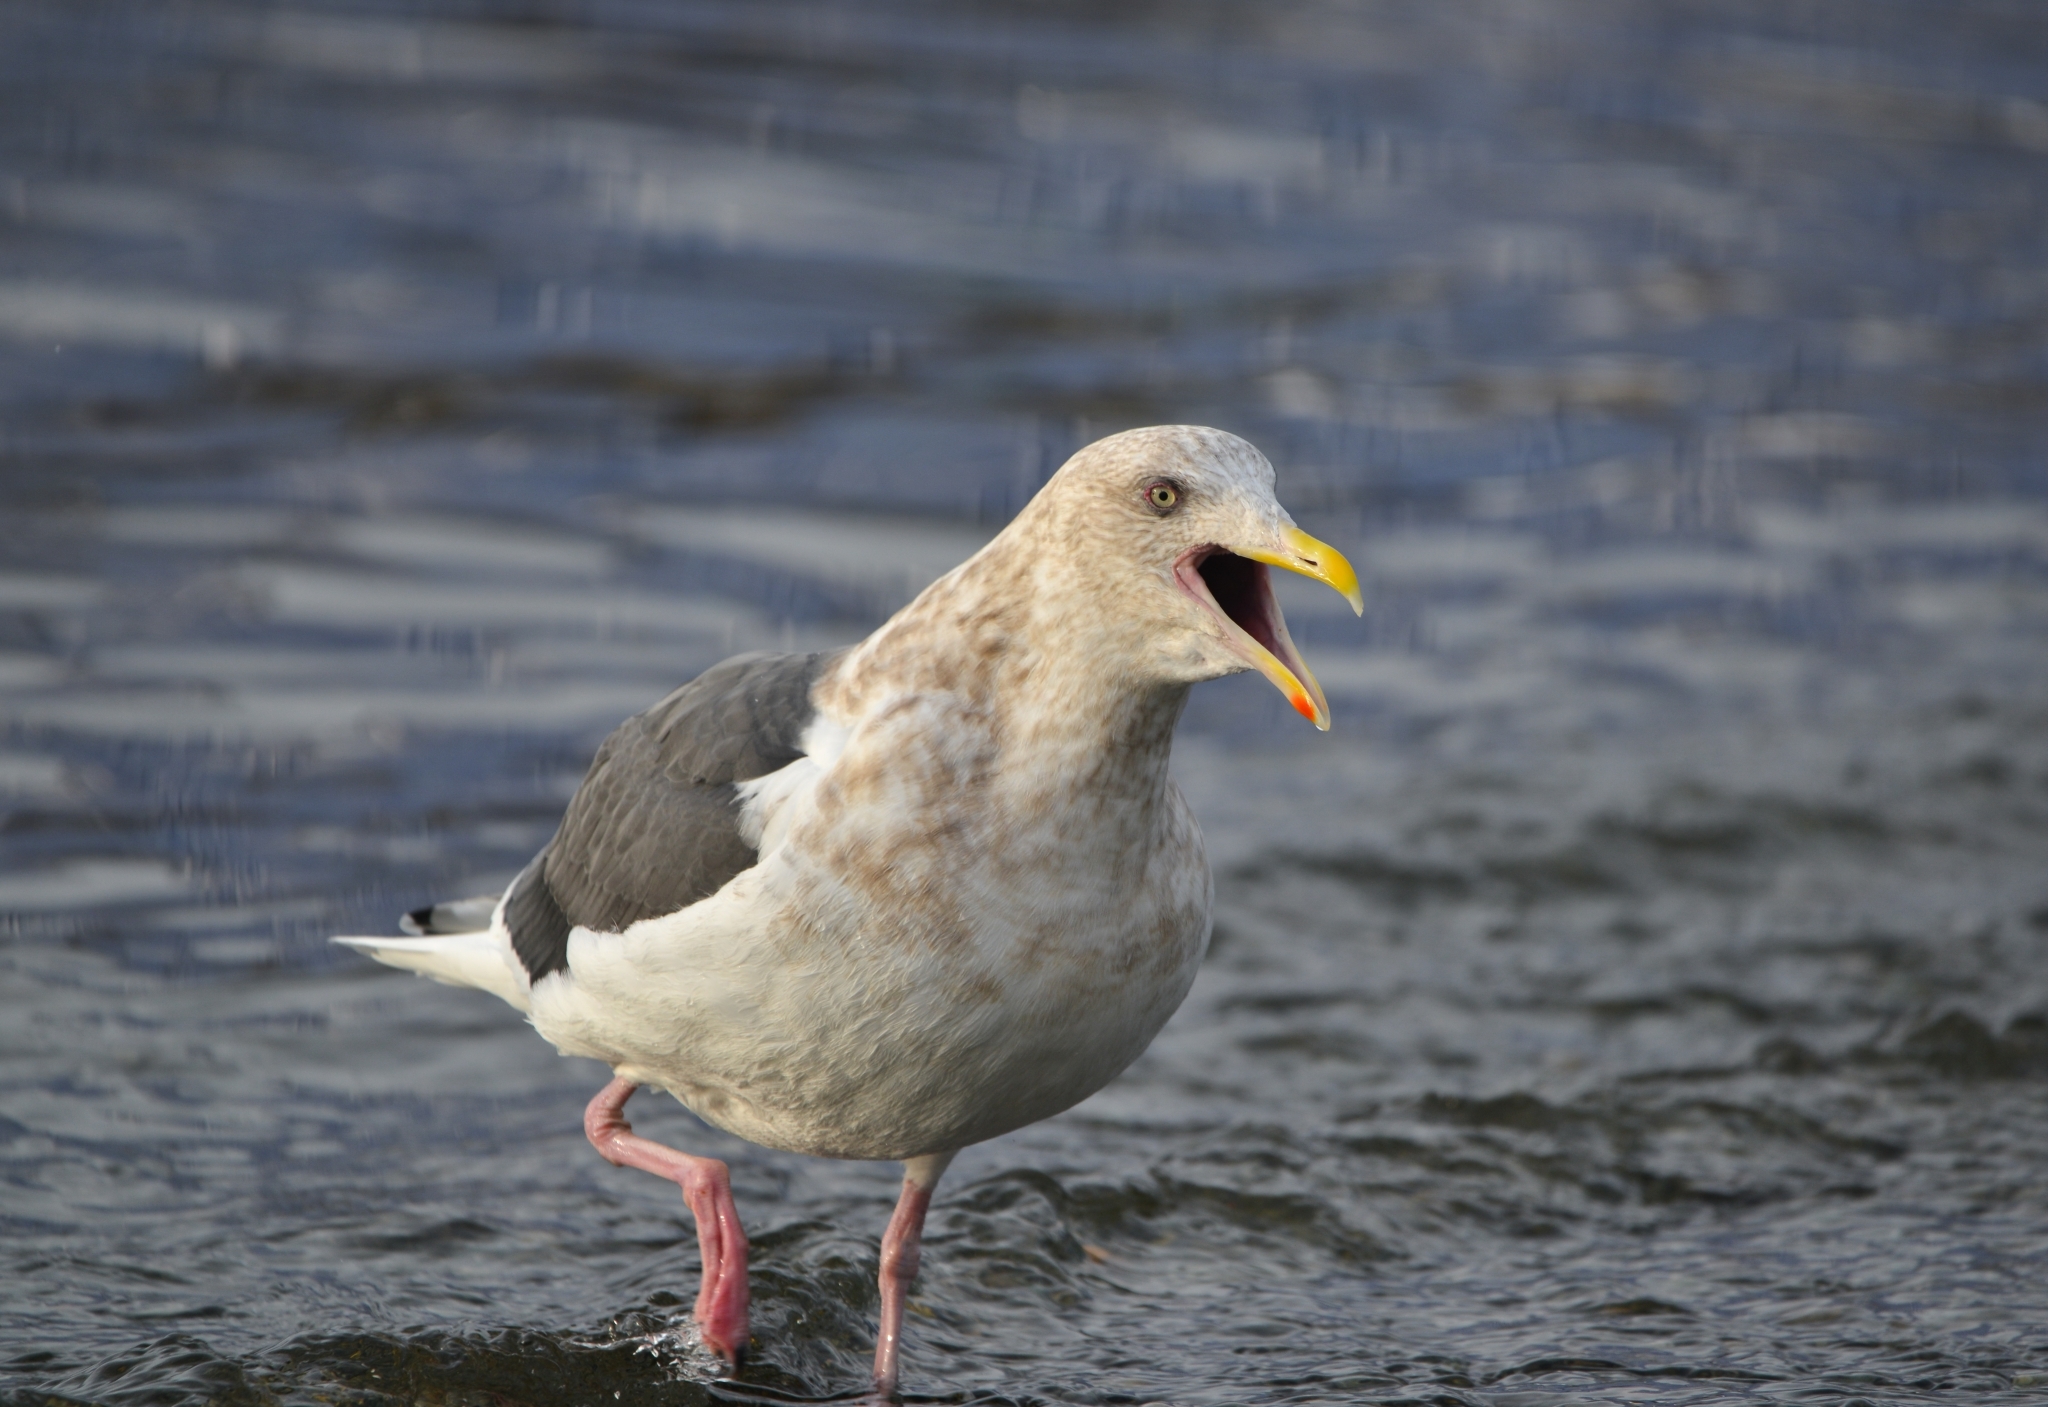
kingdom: Animalia
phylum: Chordata
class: Aves
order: Charadriiformes
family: Laridae
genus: Larus
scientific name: Larus schistisagus
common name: Slaty-backed gull
